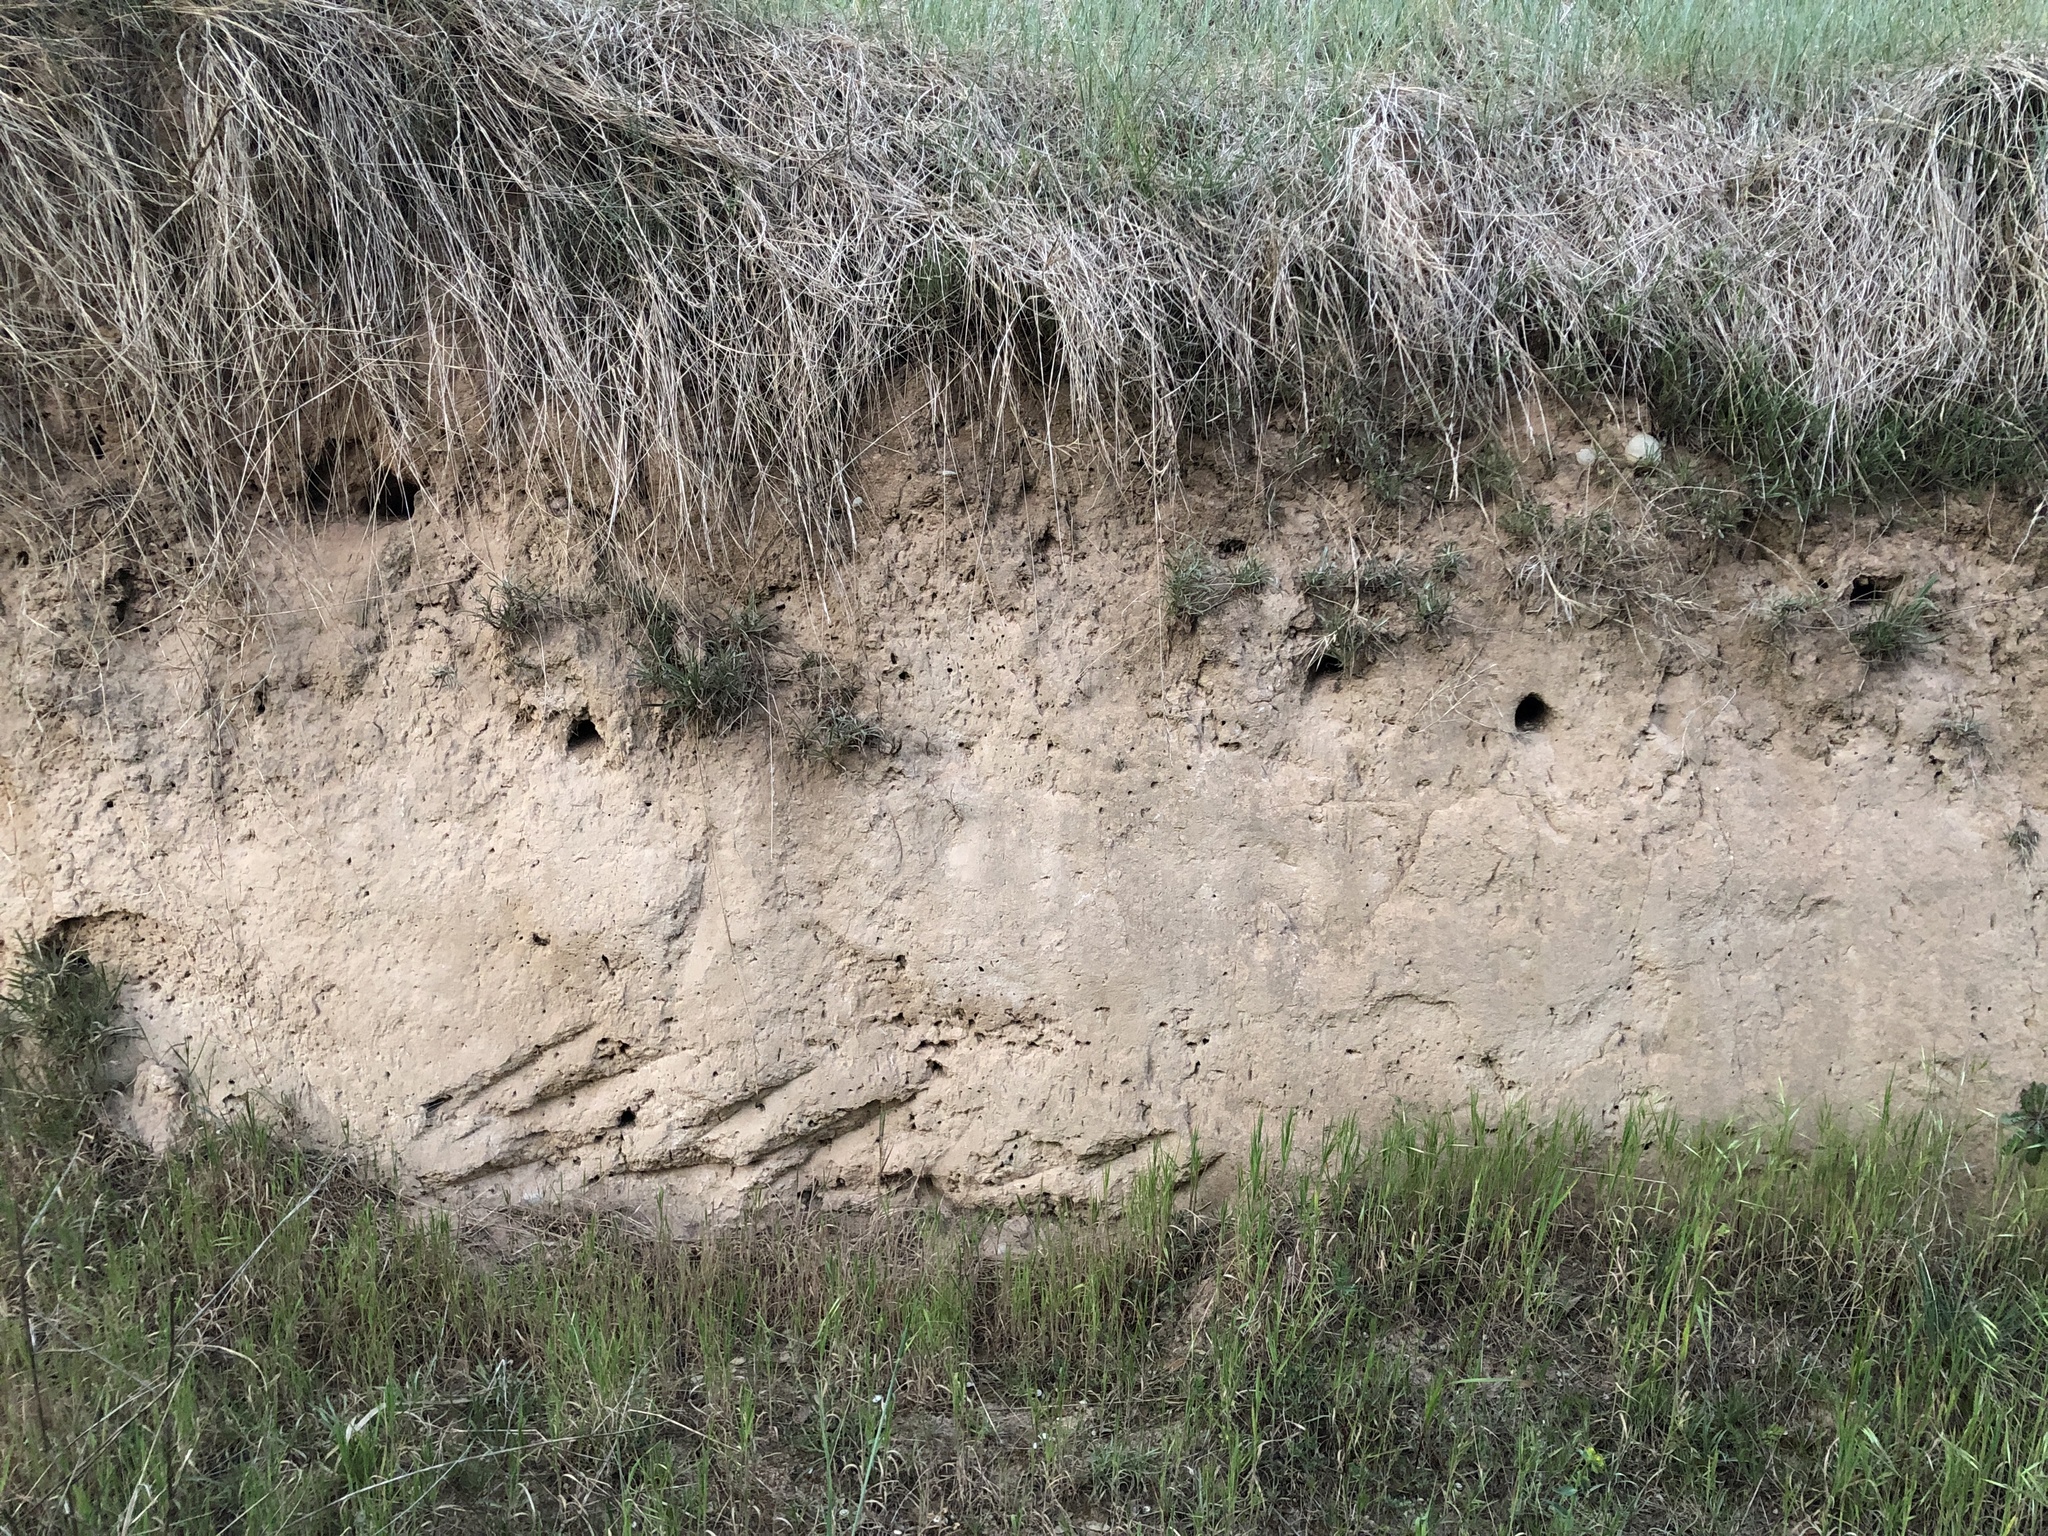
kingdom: Animalia
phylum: Chordata
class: Aves
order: Coraciiformes
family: Meropidae
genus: Merops
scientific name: Merops apiaster
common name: European bee-eater
